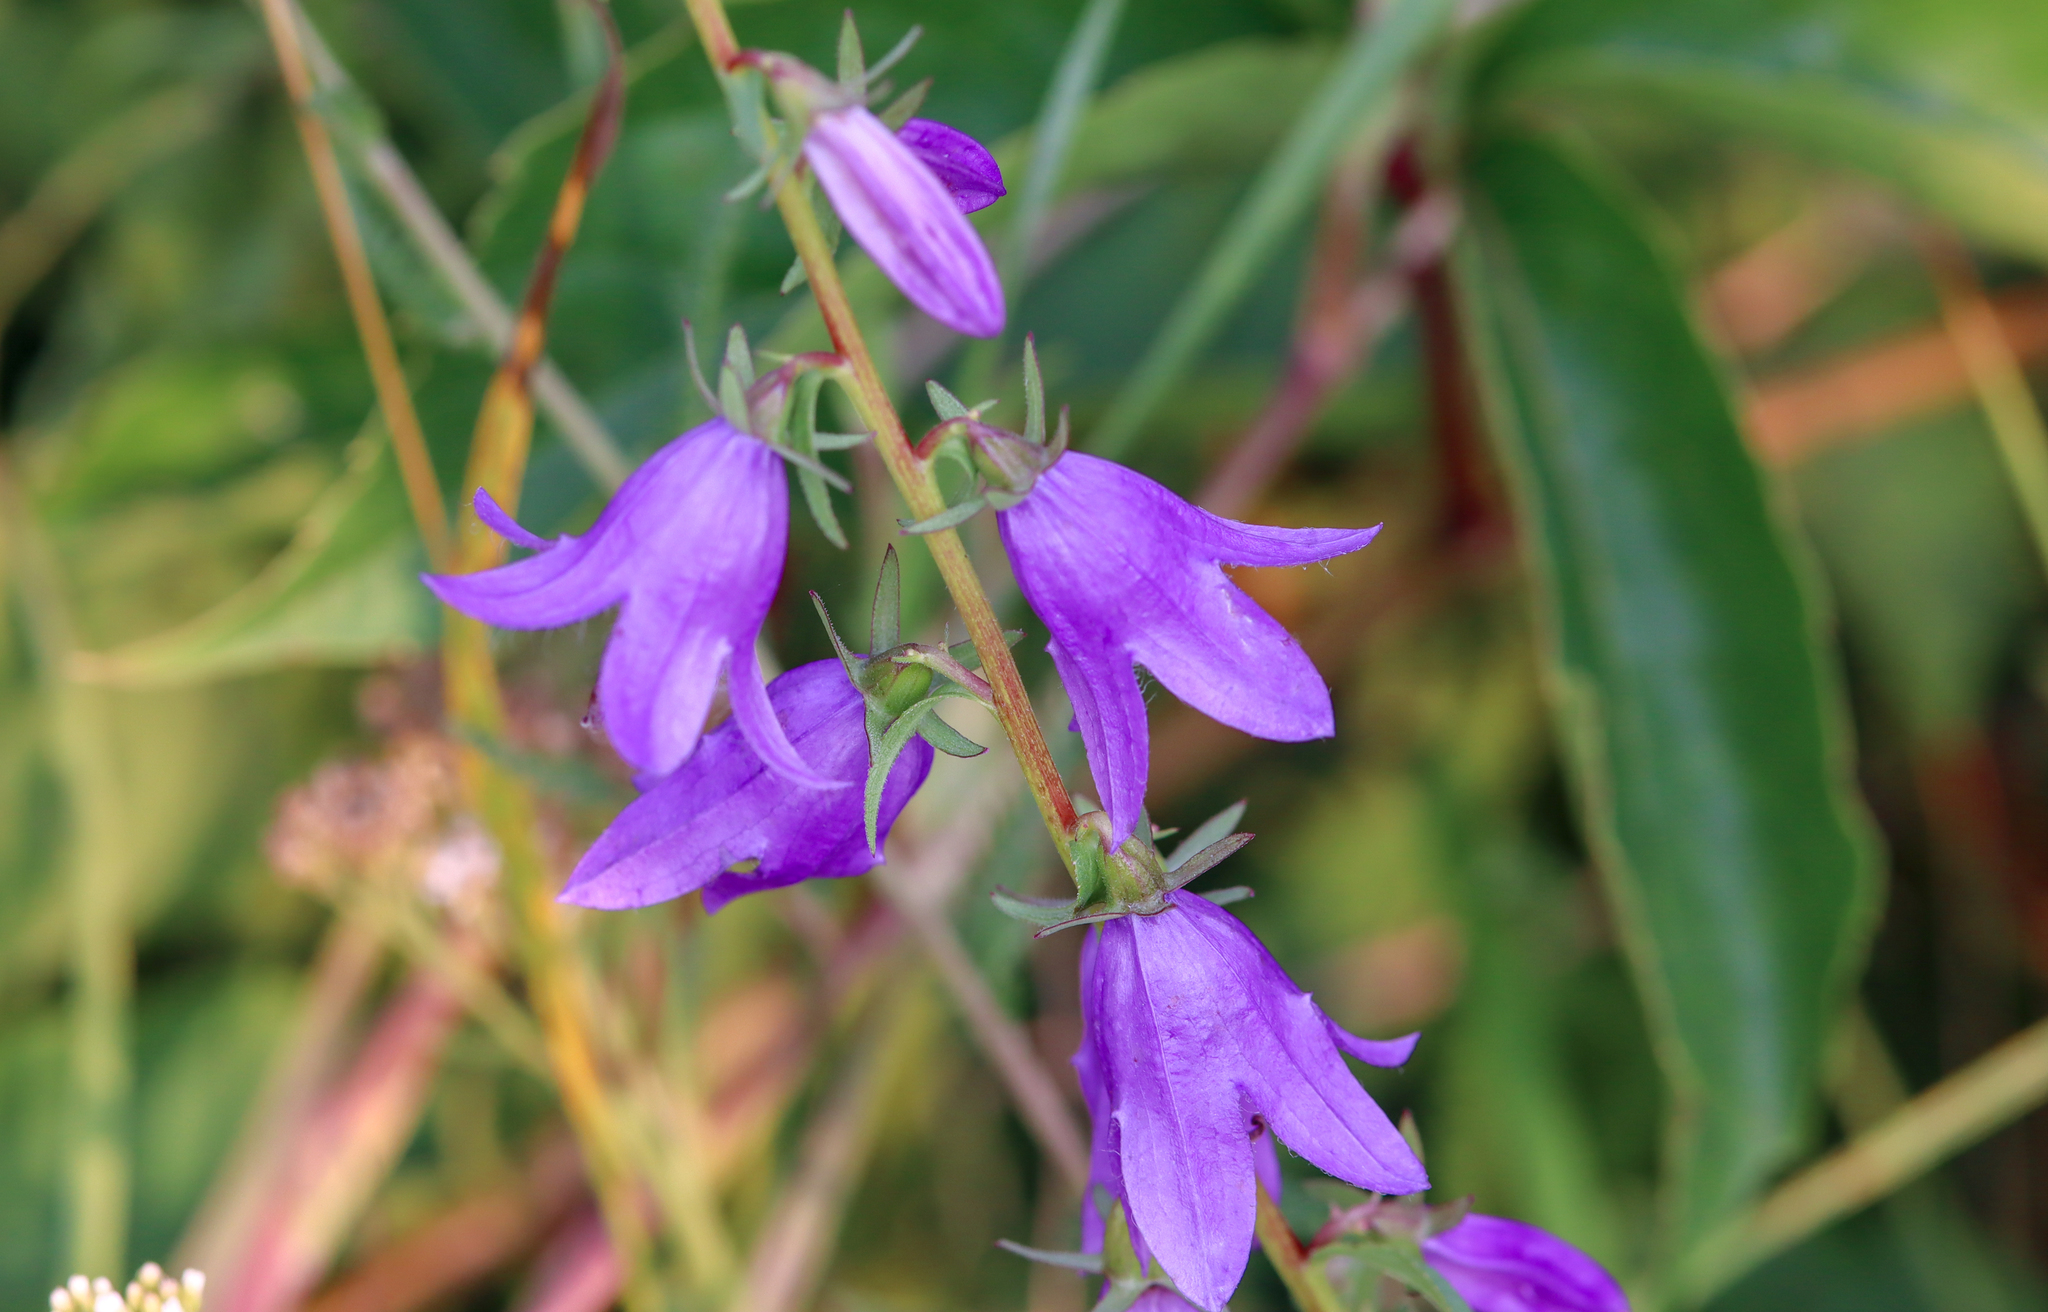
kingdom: Plantae
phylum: Tracheophyta
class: Magnoliopsida
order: Asterales
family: Campanulaceae
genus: Campanula
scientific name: Campanula rapunculoides
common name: Creeping bellflower
